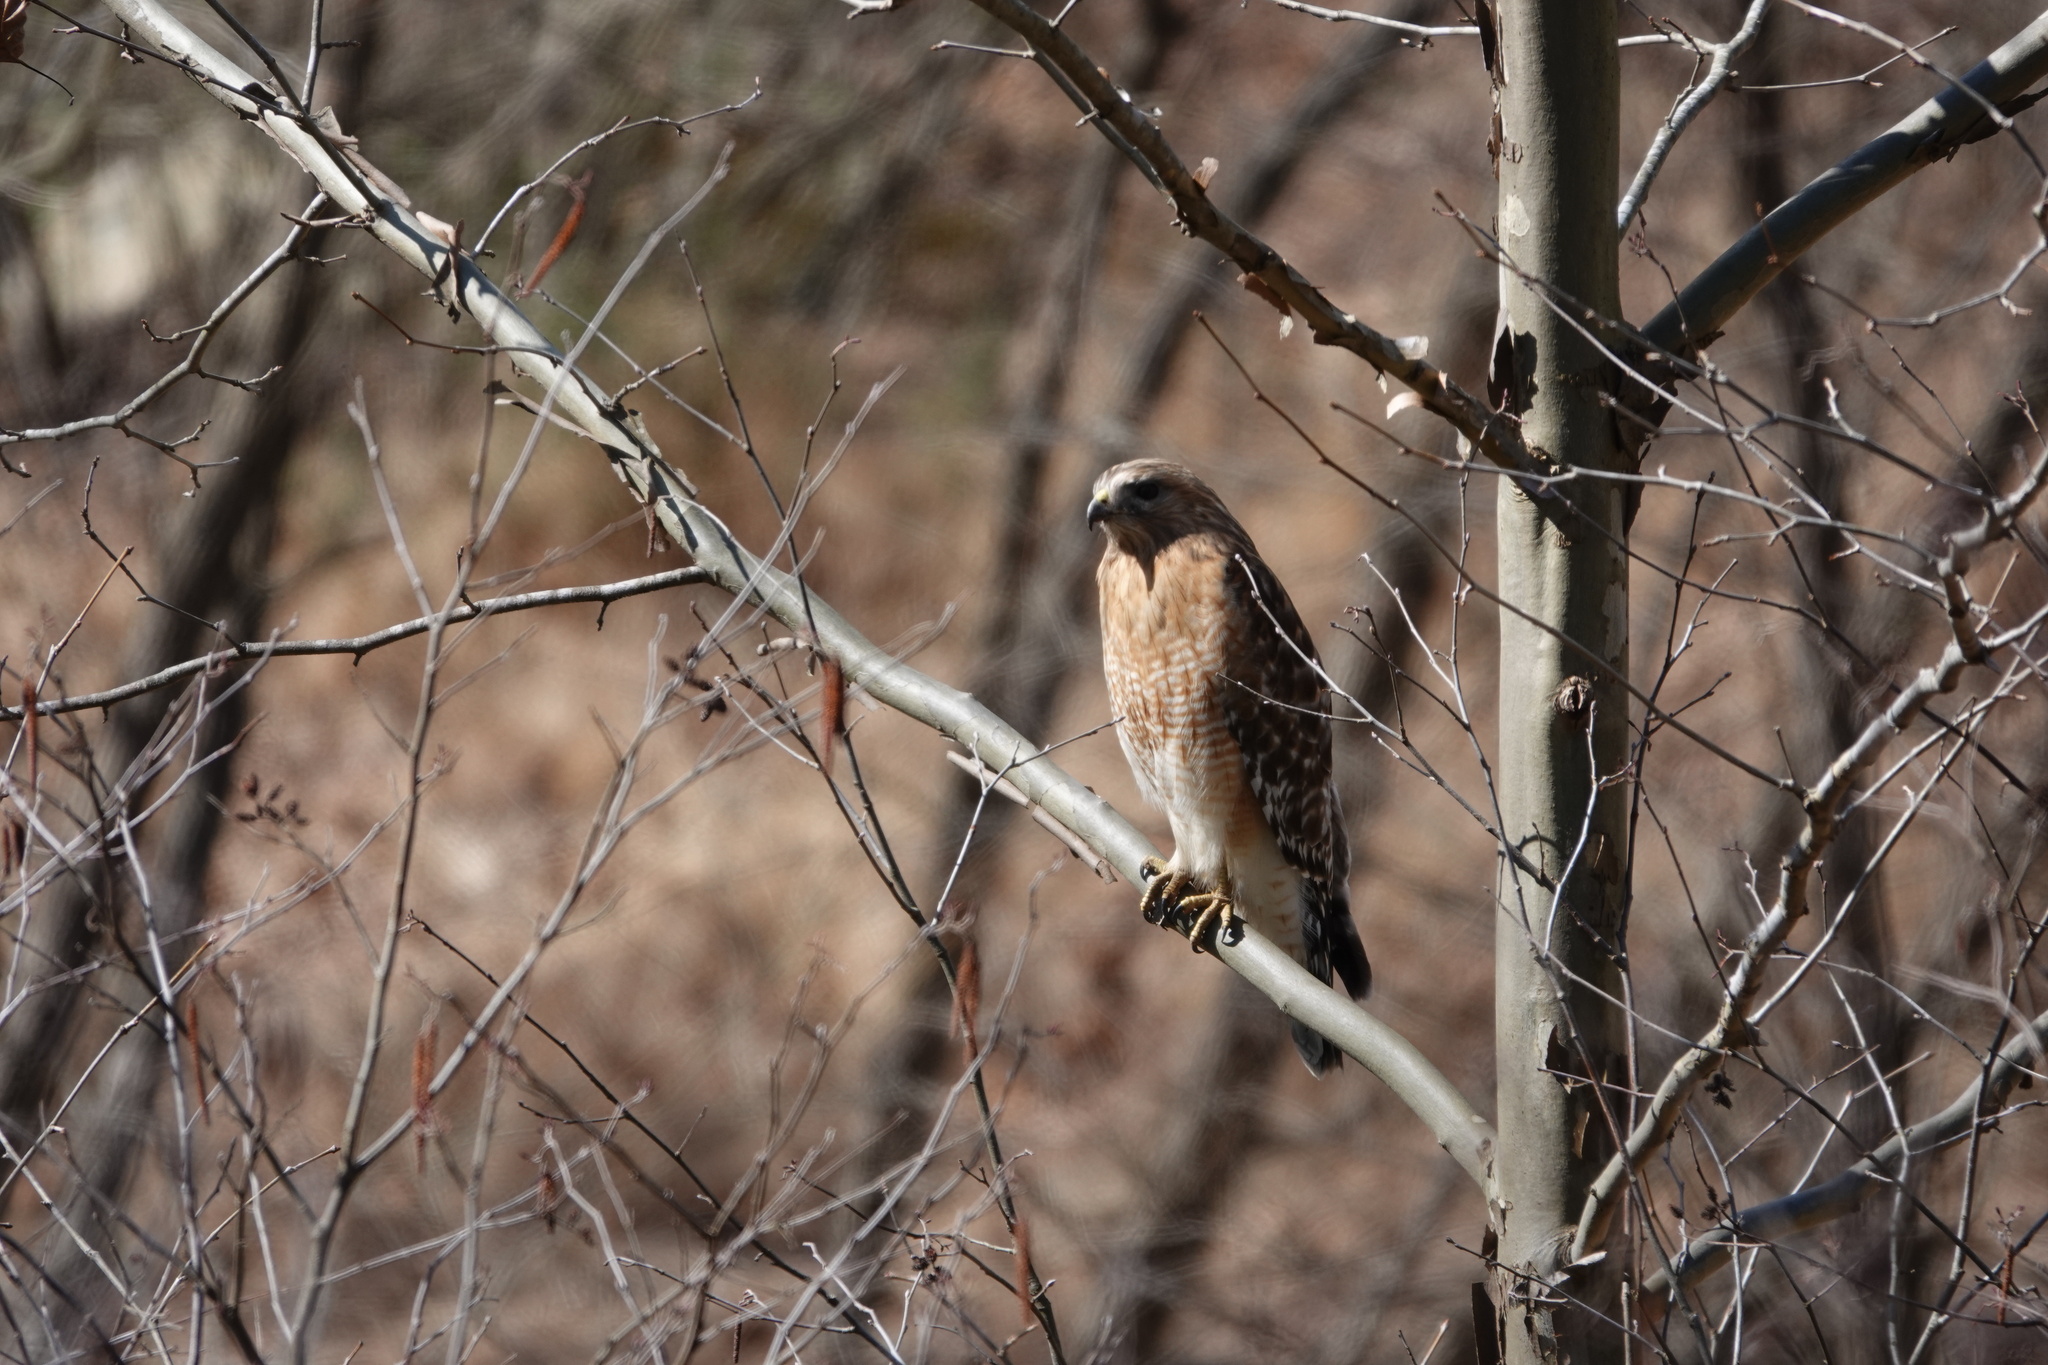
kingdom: Animalia
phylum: Chordata
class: Aves
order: Accipitriformes
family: Accipitridae
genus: Buteo
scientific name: Buteo lineatus
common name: Red-shouldered hawk
